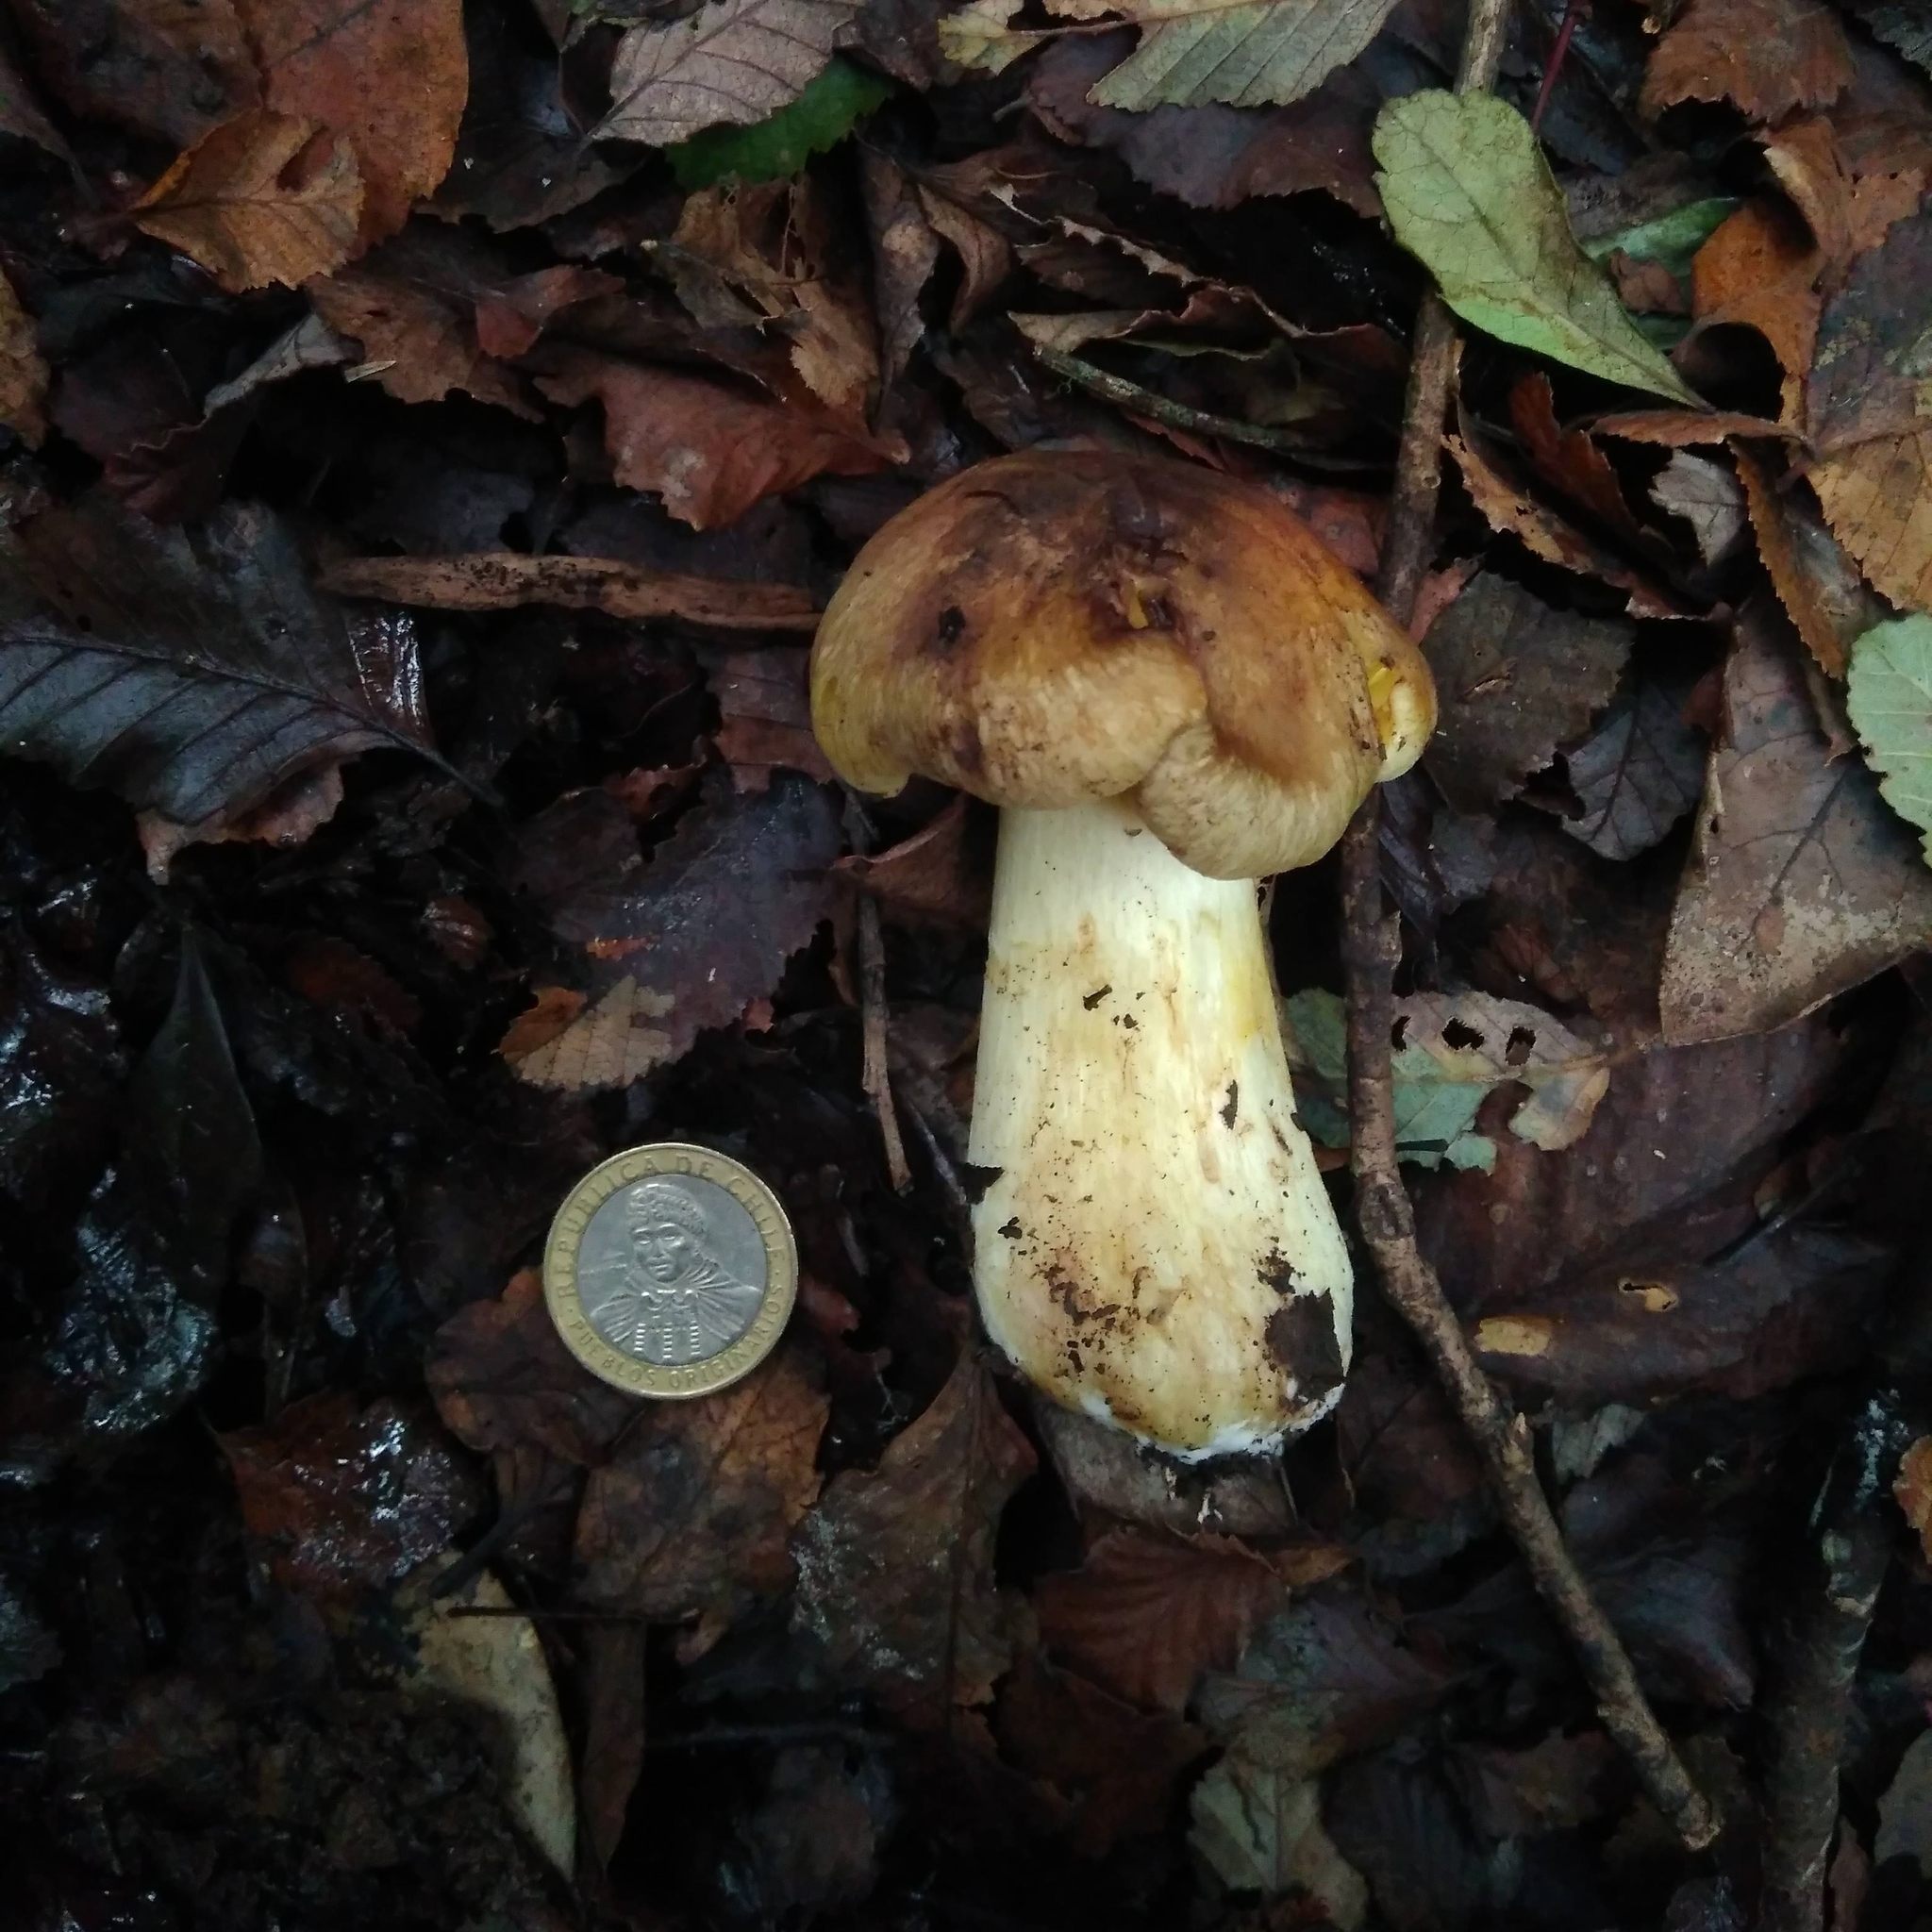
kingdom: Fungi
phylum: Basidiomycota
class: Agaricomycetes
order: Agaricales
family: Tricholomataceae
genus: Porpoloma
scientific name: Porpoloma sejunctum
